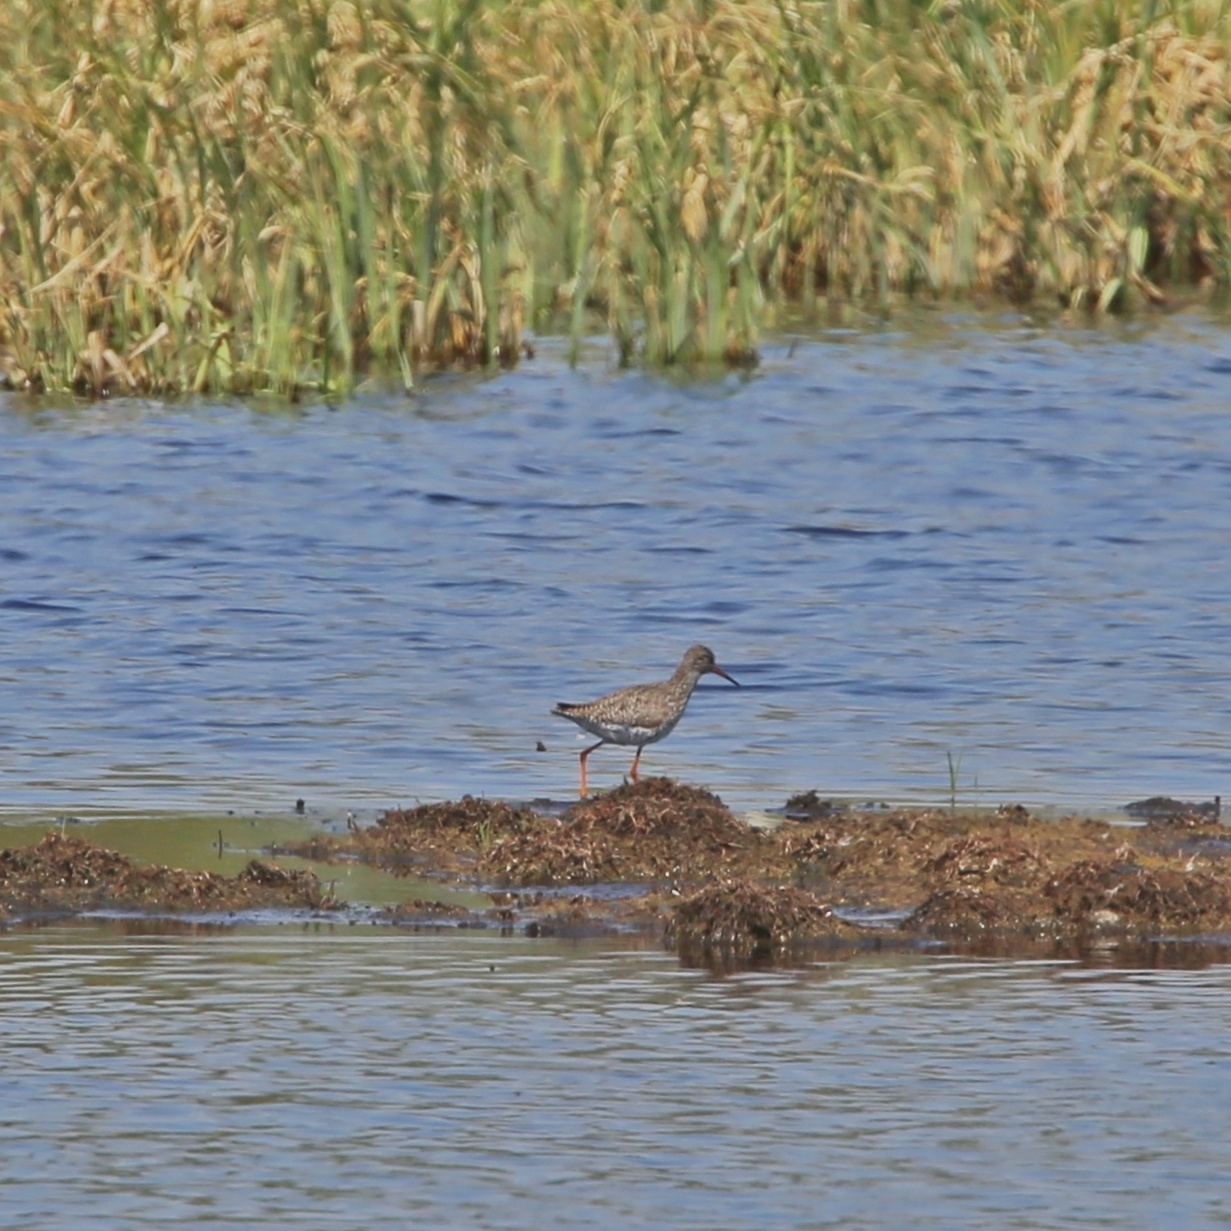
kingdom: Animalia
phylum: Chordata
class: Aves
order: Charadriiformes
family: Scolopacidae
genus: Tringa
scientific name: Tringa totanus
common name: Common redshank
